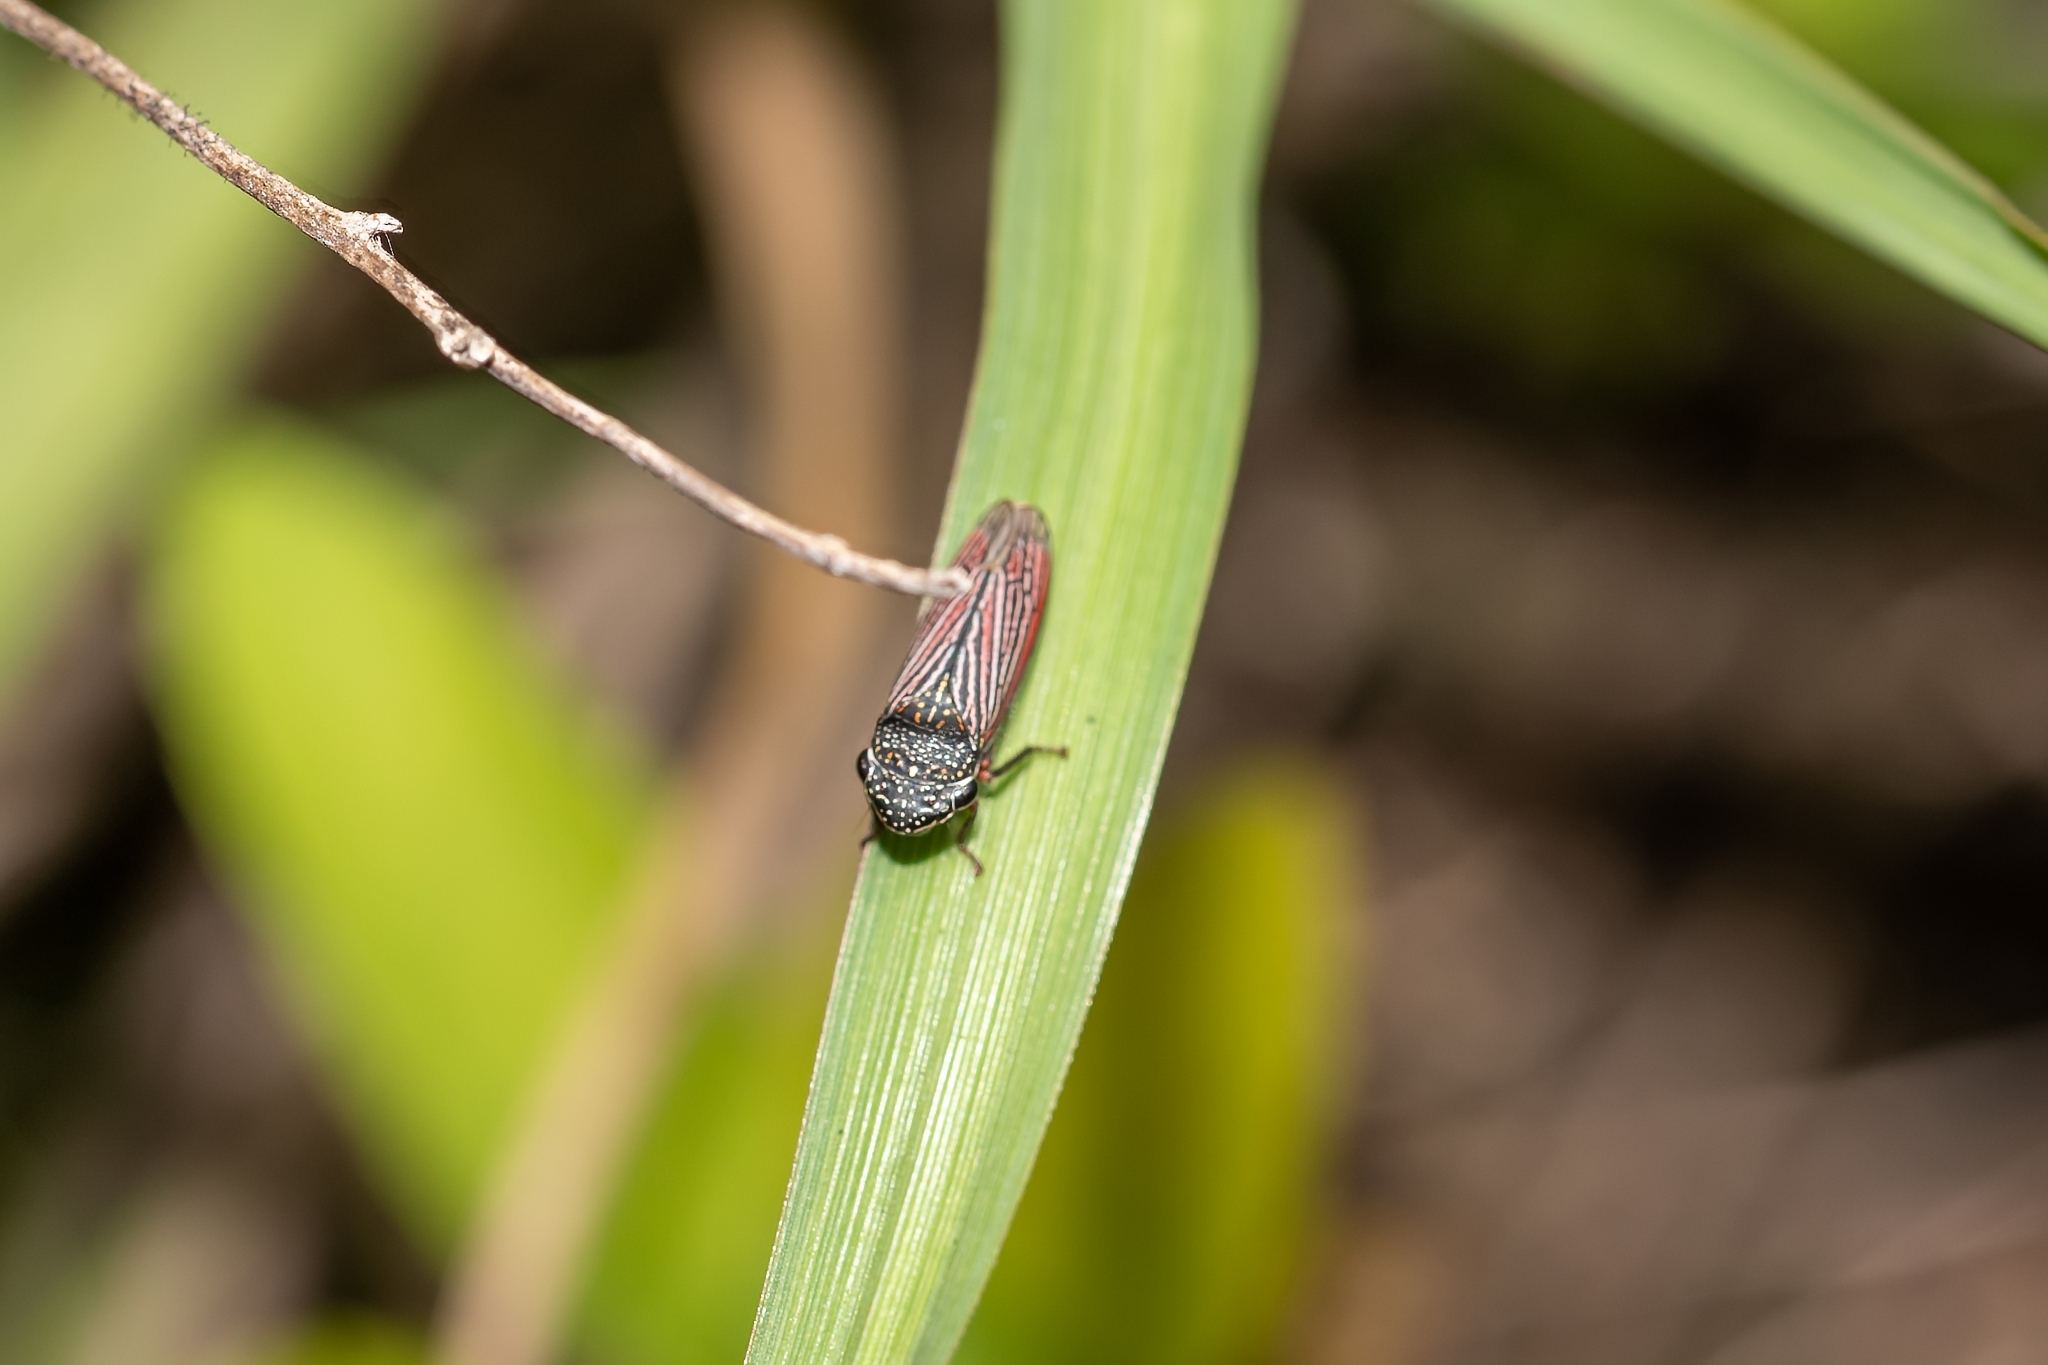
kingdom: Animalia
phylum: Arthropoda
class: Insecta
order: Hemiptera
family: Cicadellidae
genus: Cuerna
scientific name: Cuerna costalis
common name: Lateral-lined sharpshooter
